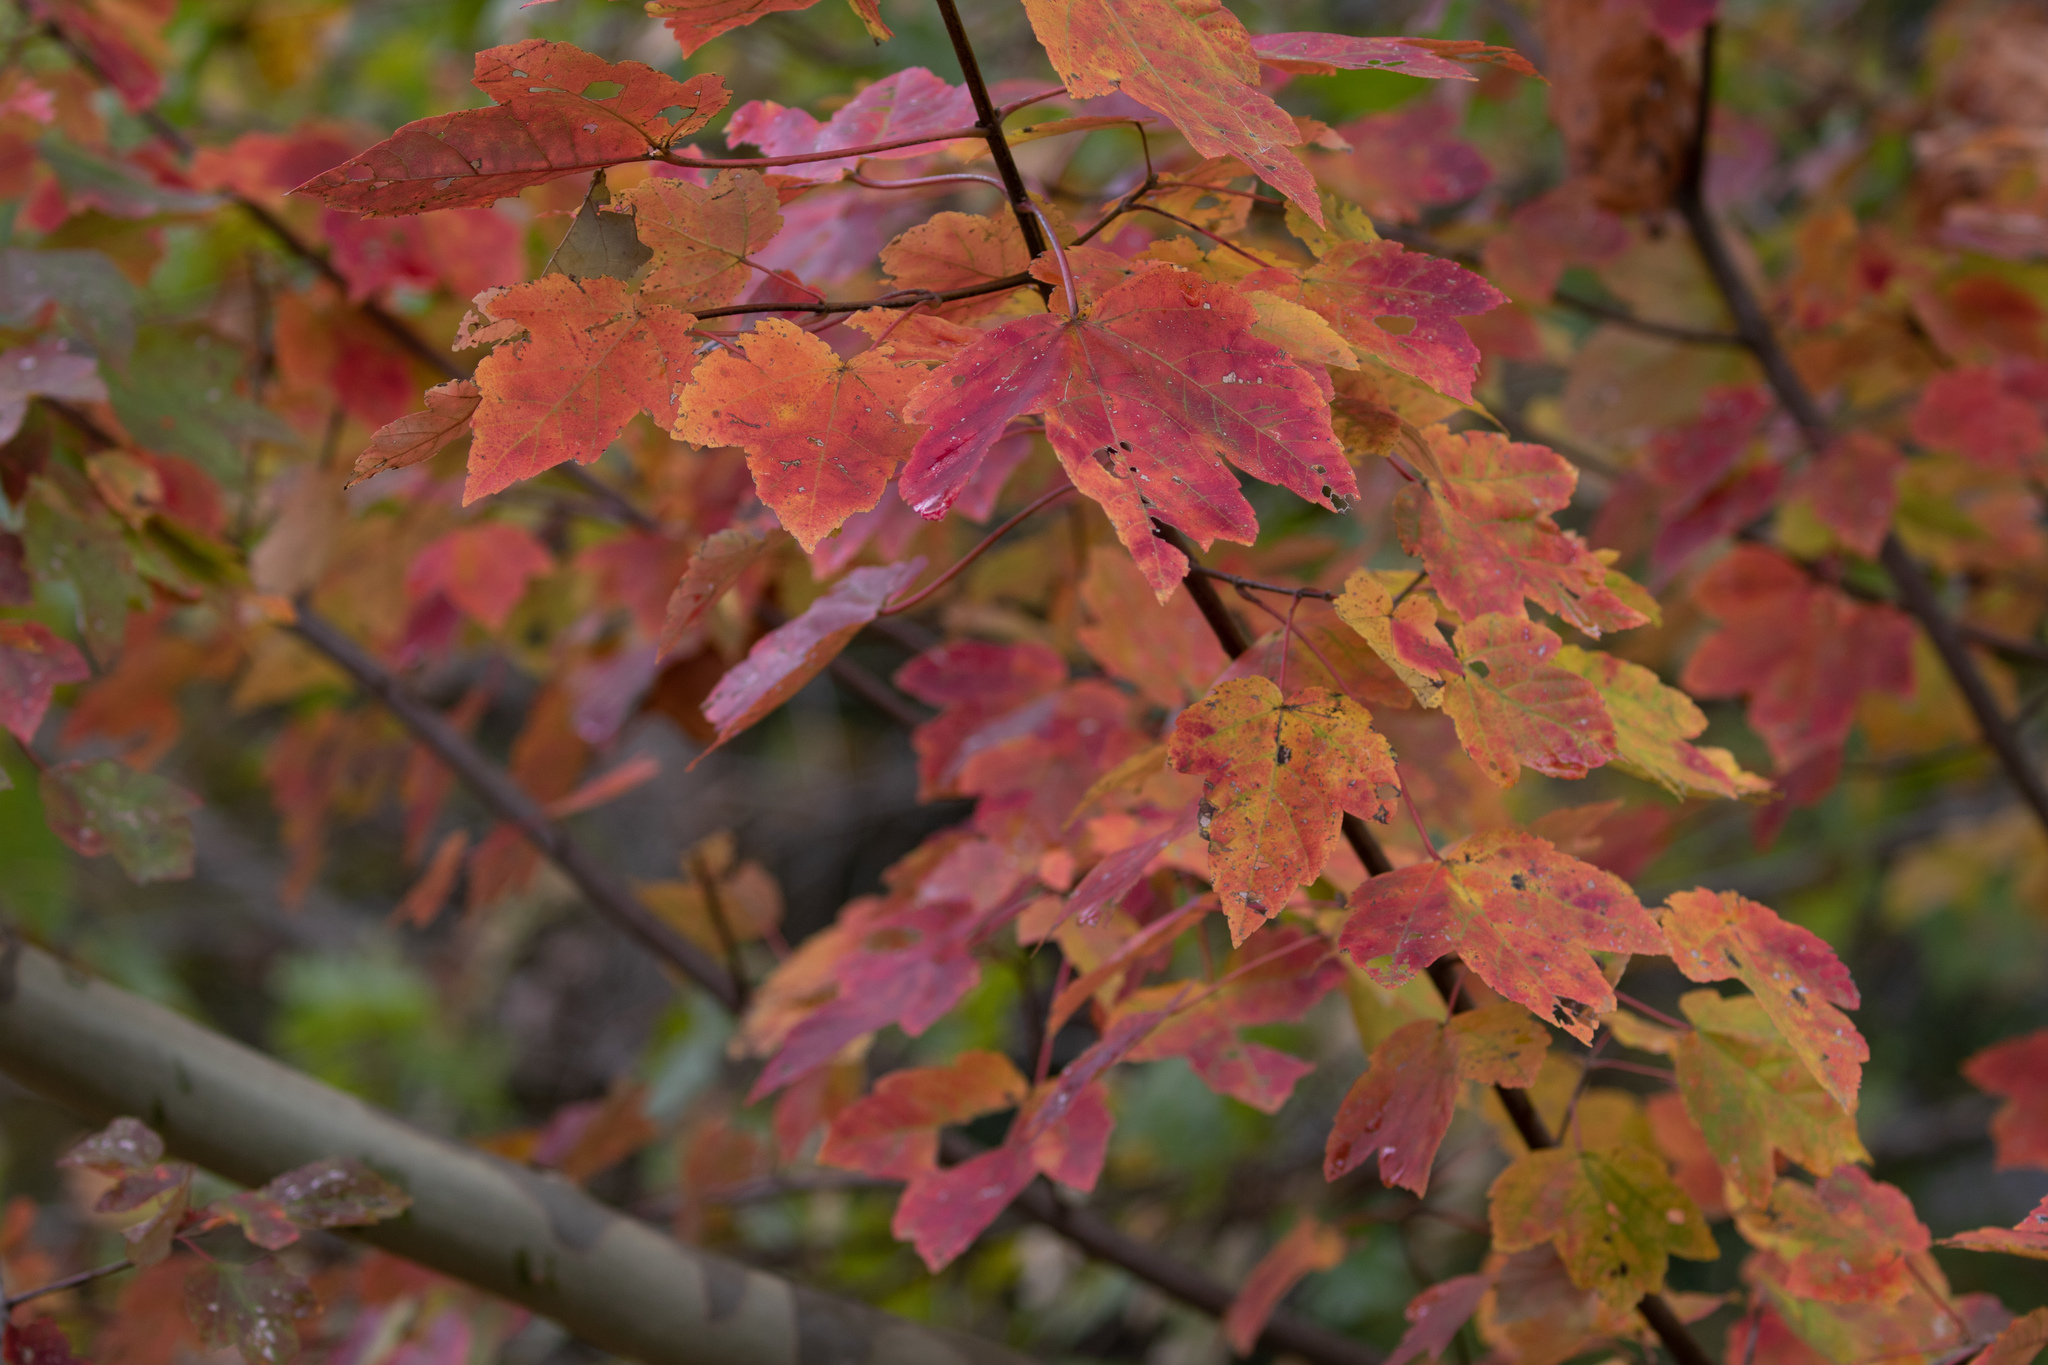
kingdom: Plantae
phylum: Tracheophyta
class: Magnoliopsida
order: Sapindales
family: Sapindaceae
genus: Acer
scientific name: Acer rubrum
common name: Red maple
